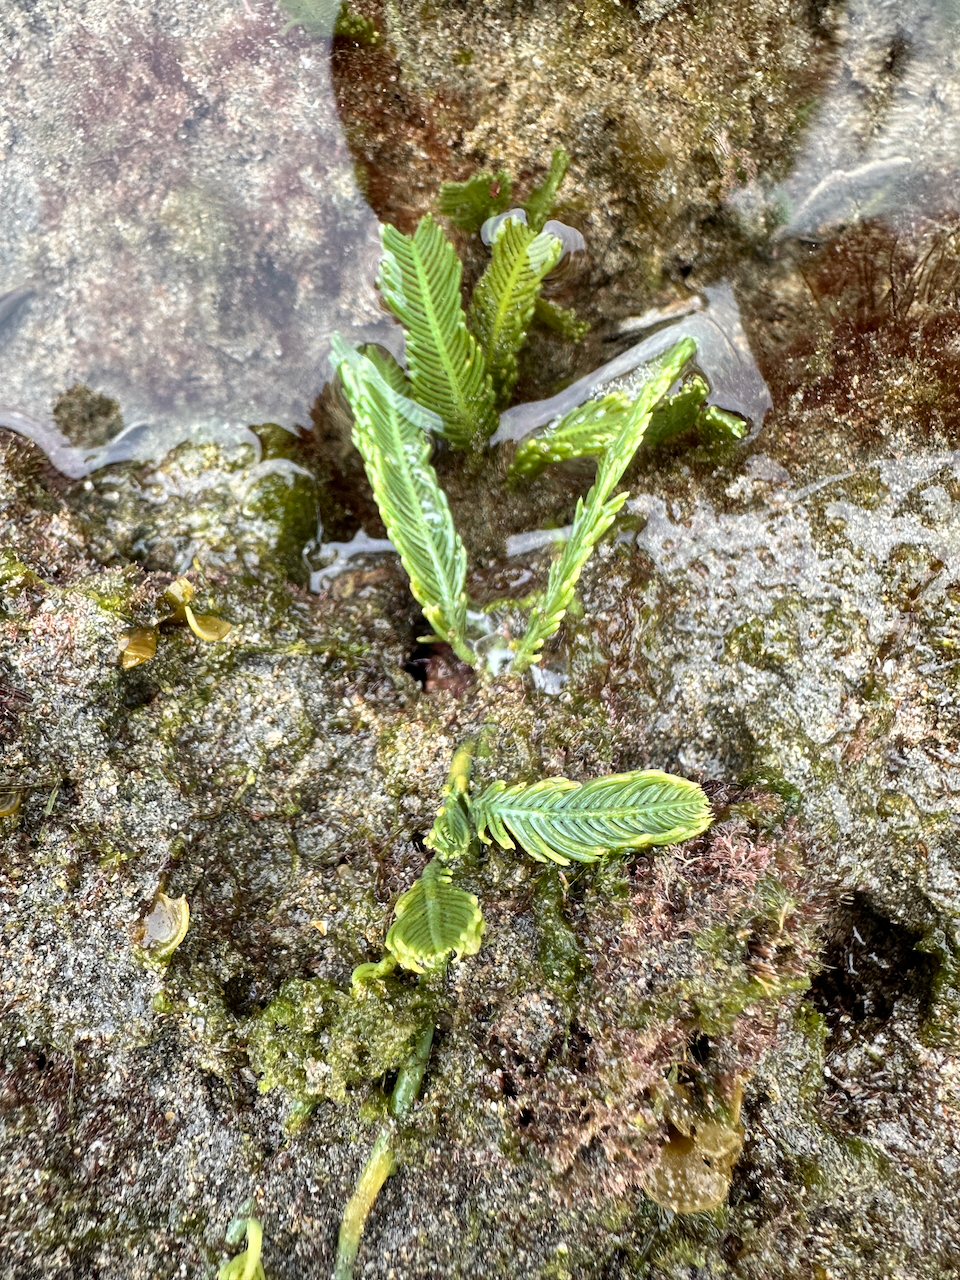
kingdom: Plantae
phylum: Chlorophyta
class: Ulvophyceae
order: Bryopsidales
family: Caulerpaceae
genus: Caulerpa
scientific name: Caulerpa sertularioides
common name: Green feather algae
